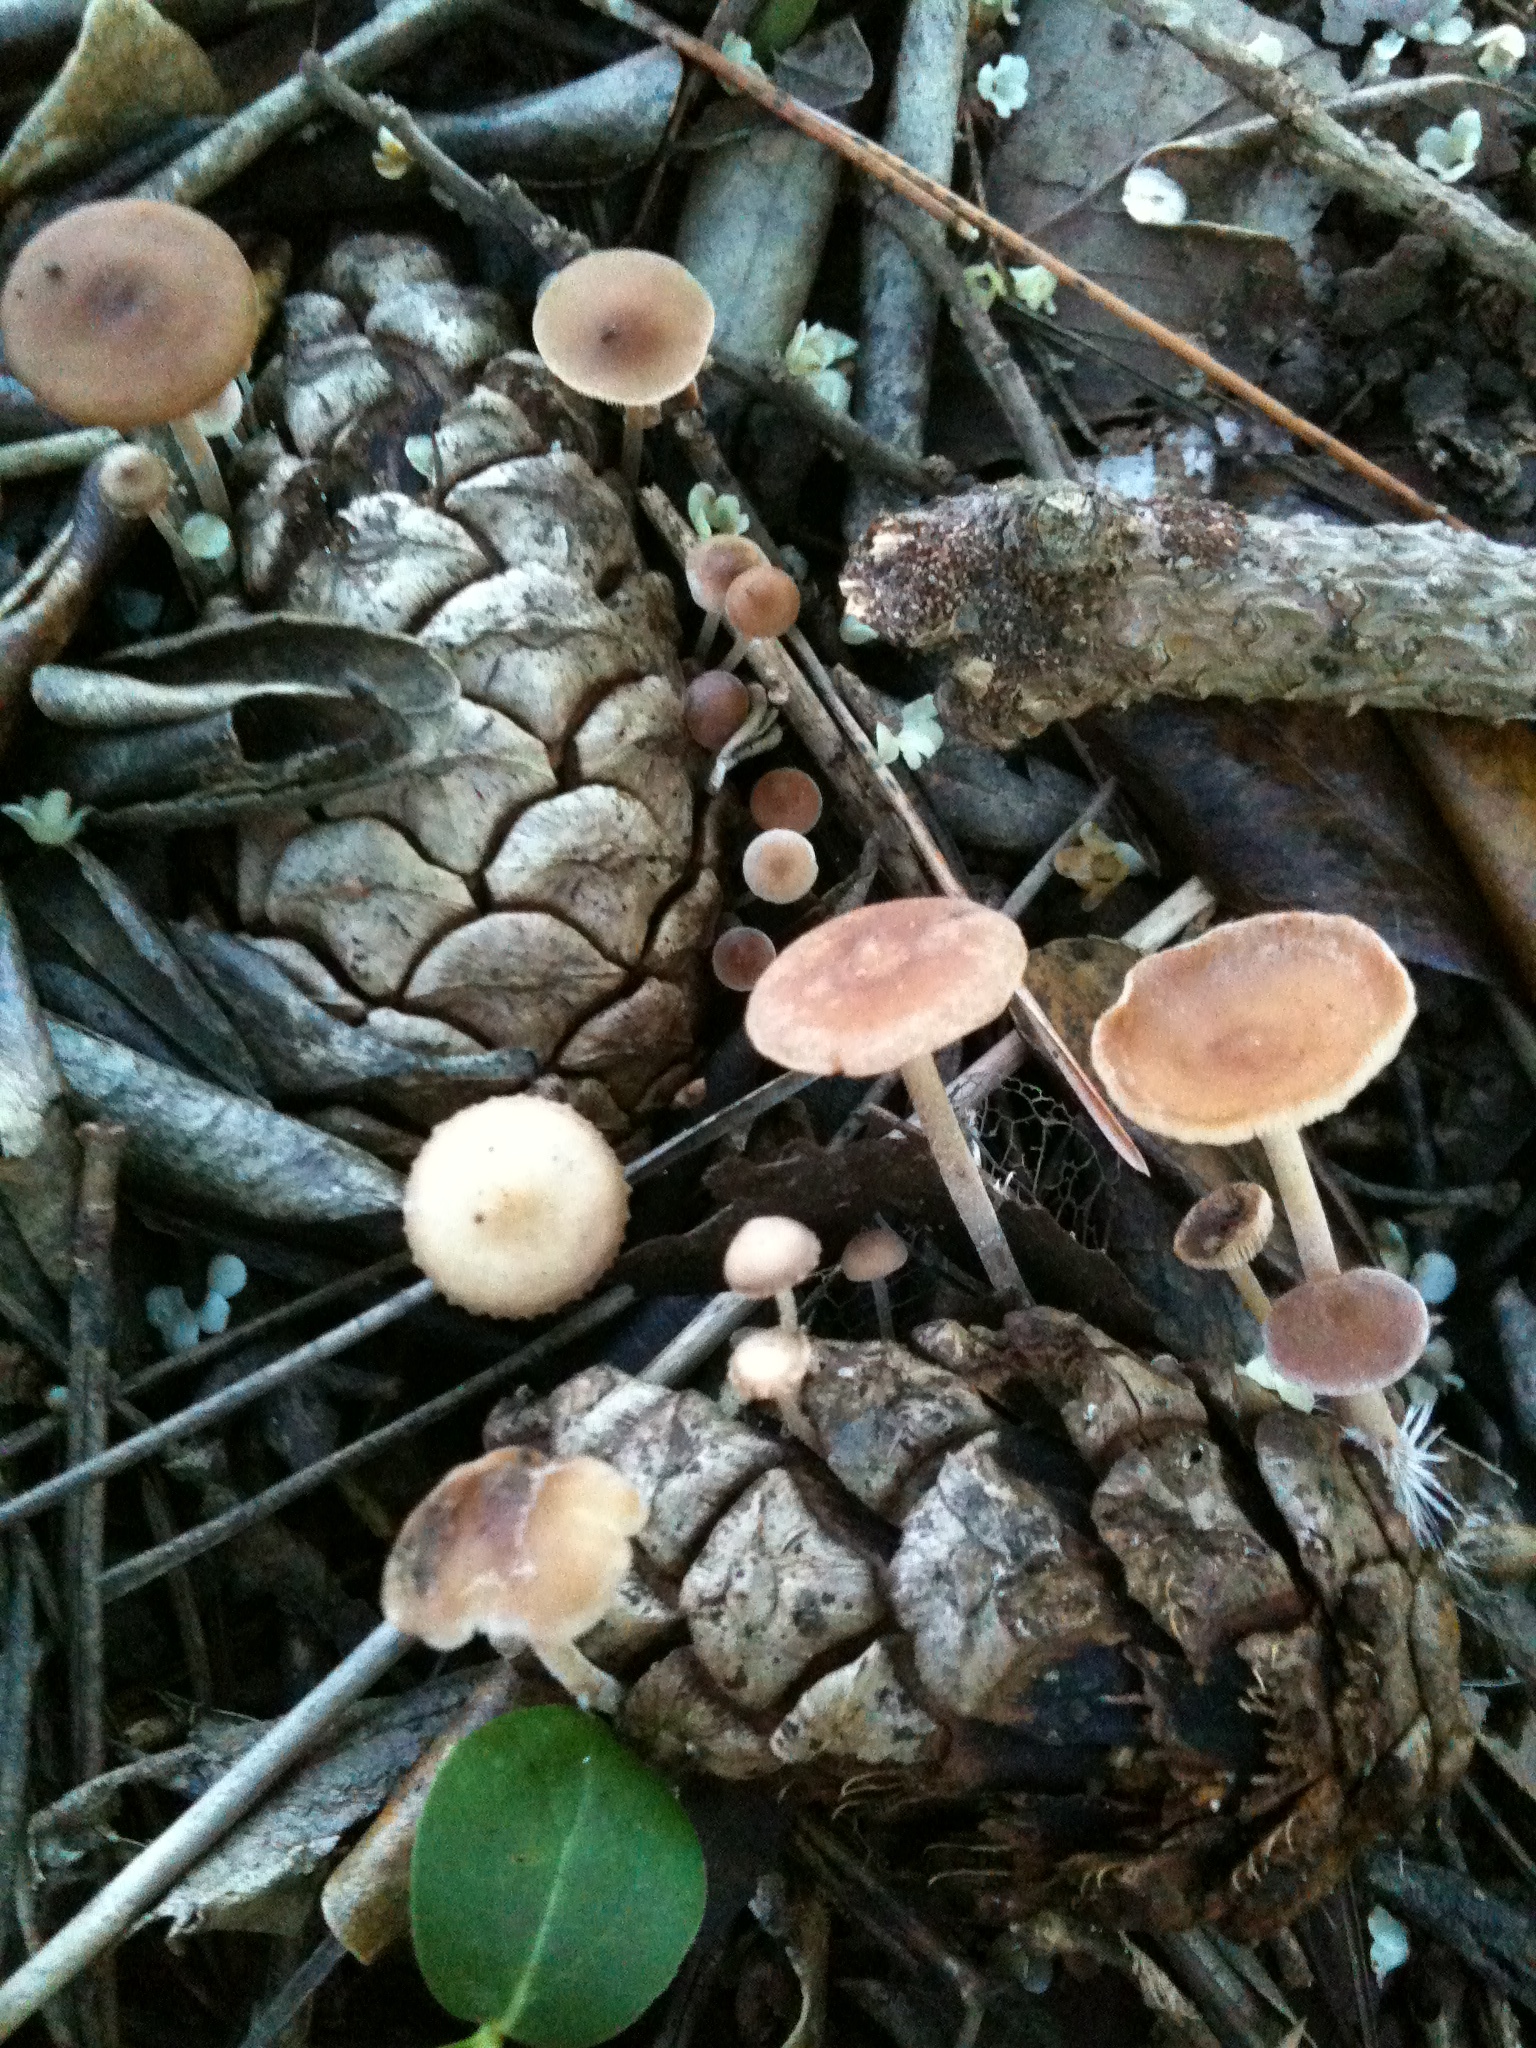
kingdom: Fungi
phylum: Basidiomycota
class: Agaricomycetes
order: Agaricales
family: Marasmiaceae
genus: Baeospora
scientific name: Baeospora myosura
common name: Conifercone cap
